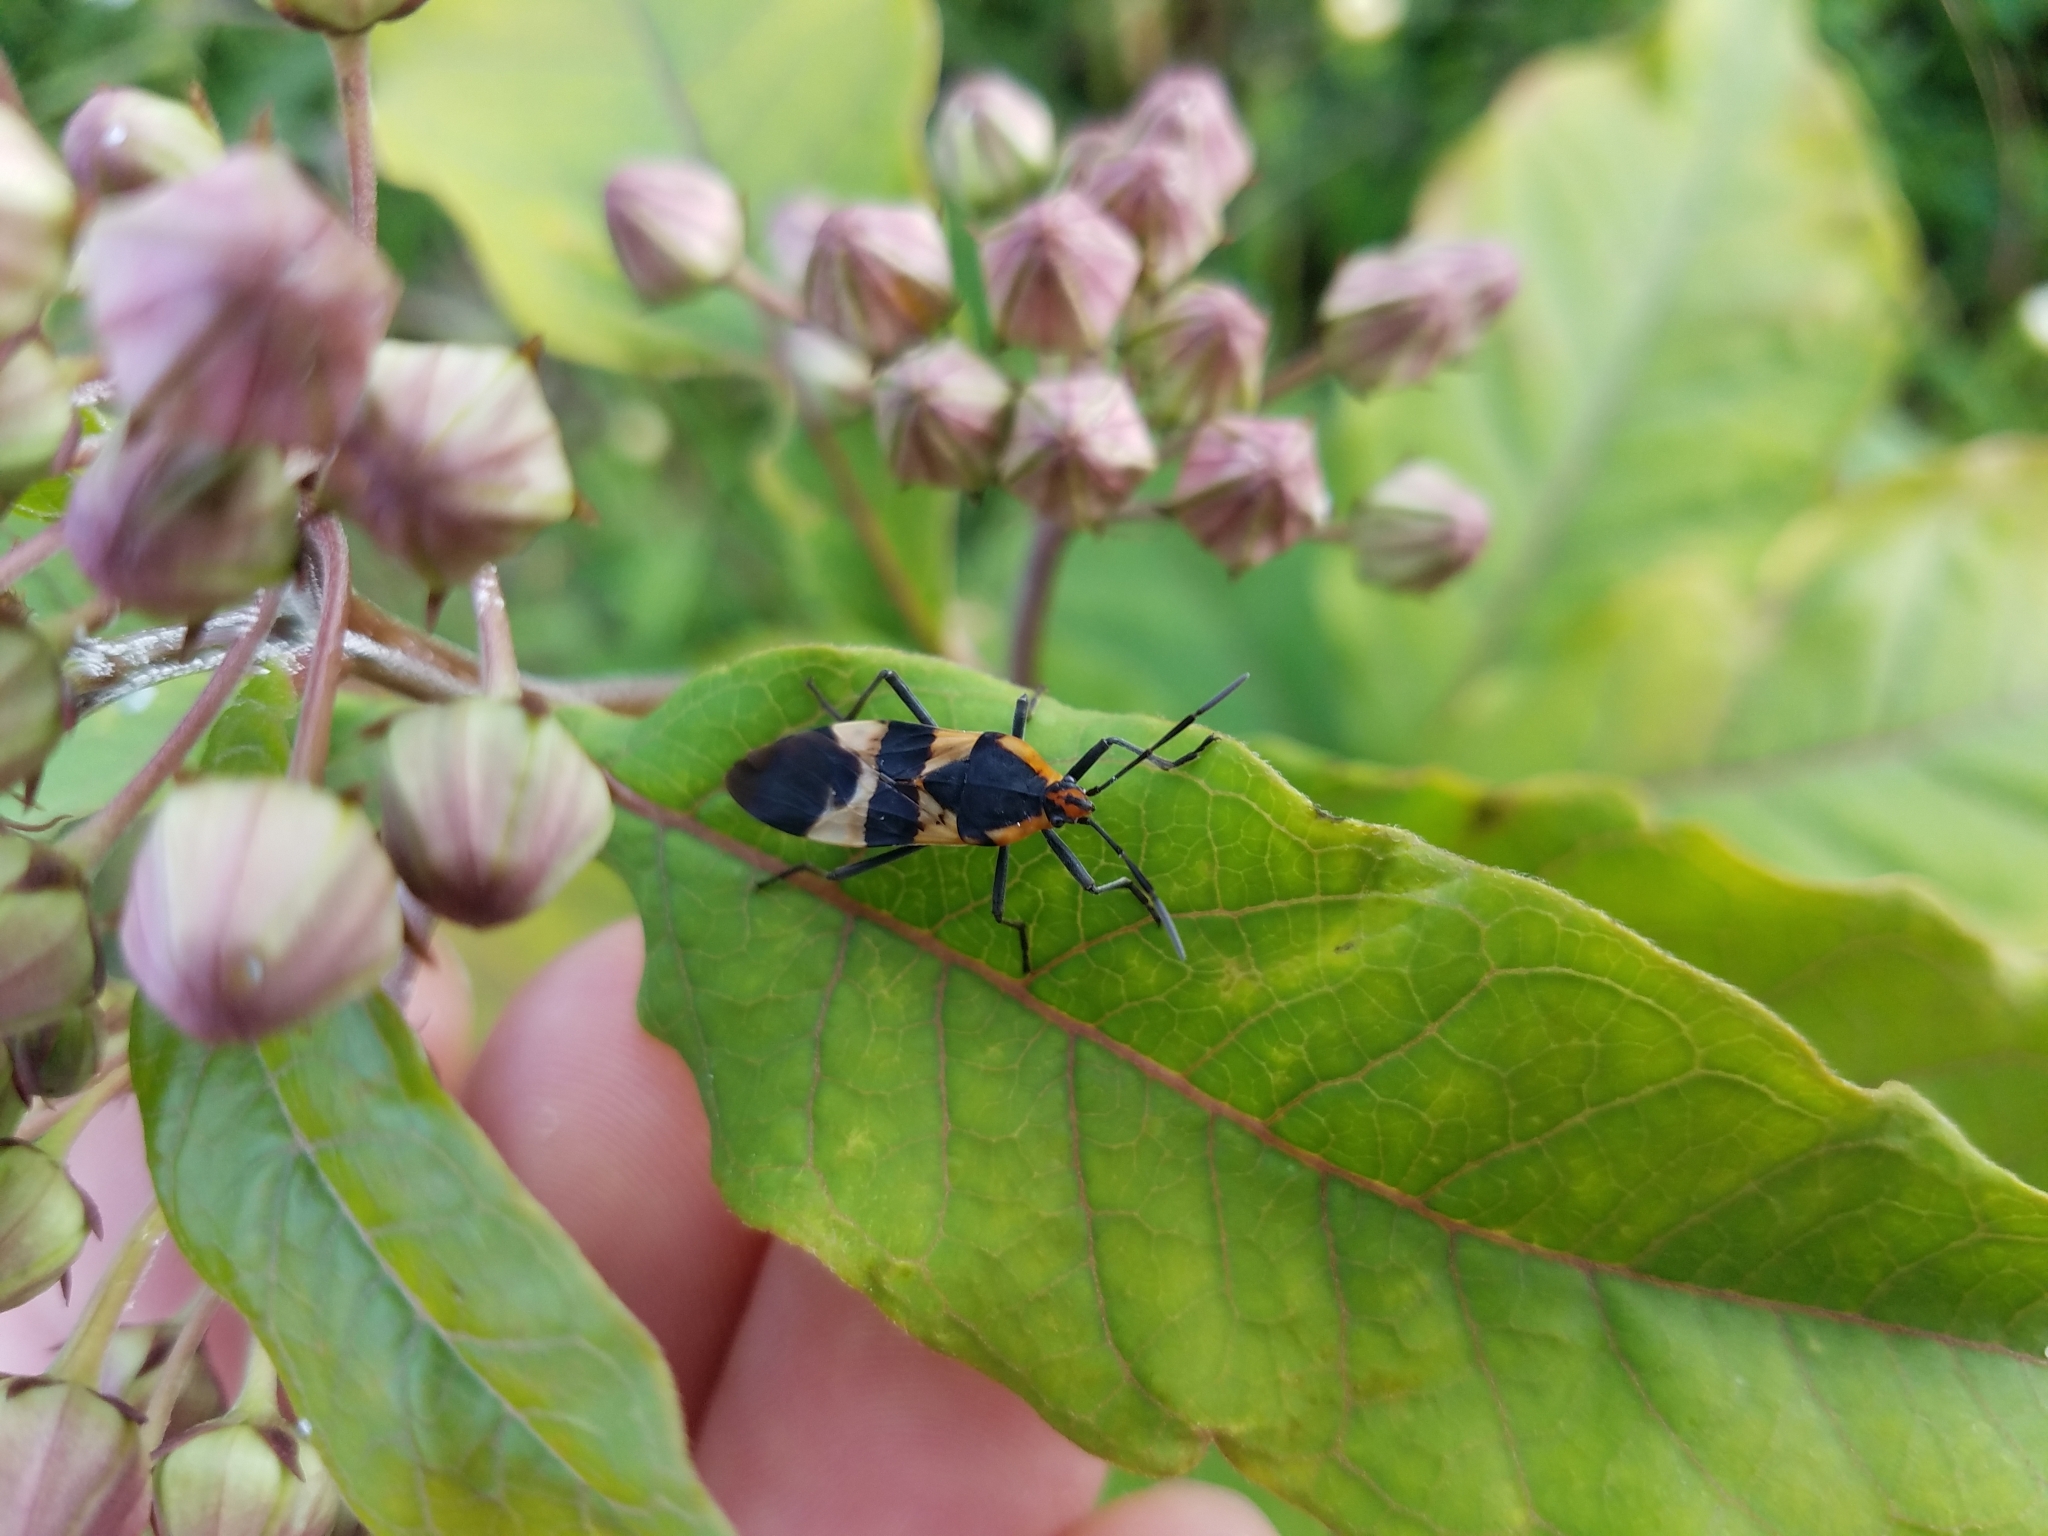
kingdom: Animalia
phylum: Arthropoda
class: Insecta
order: Hemiptera
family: Lygaeidae
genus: Oncopeltus
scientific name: Oncopeltus fasciatus
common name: Large milkweed bug
